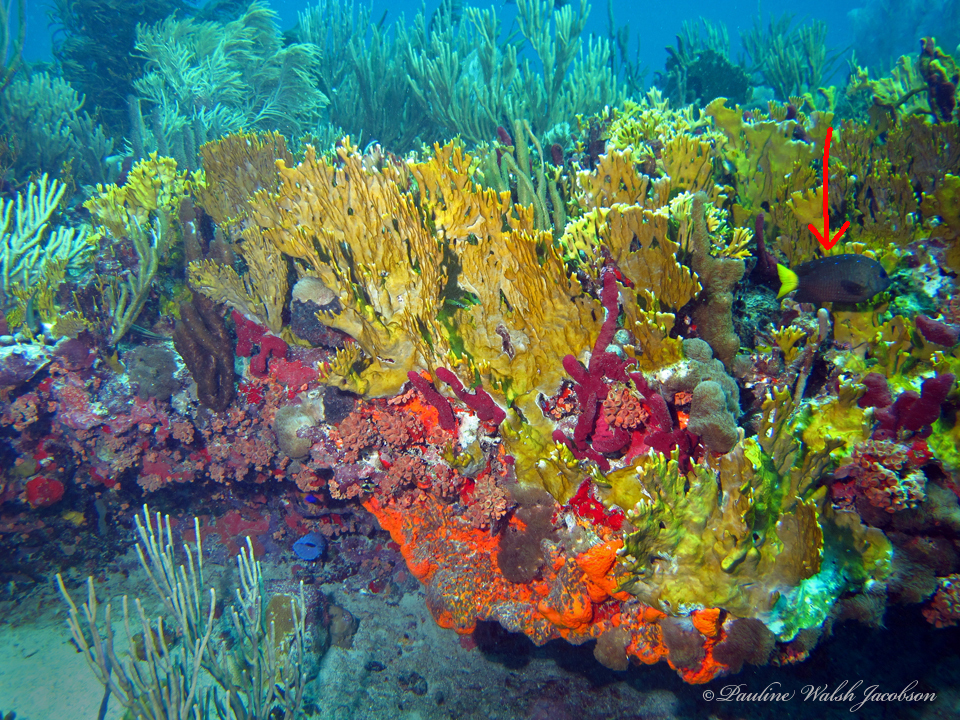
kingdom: Animalia
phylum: Chordata
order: Perciformes
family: Pomacentridae
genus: Microspathodon
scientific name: Microspathodon chrysurus
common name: Yellowtail damselfish
